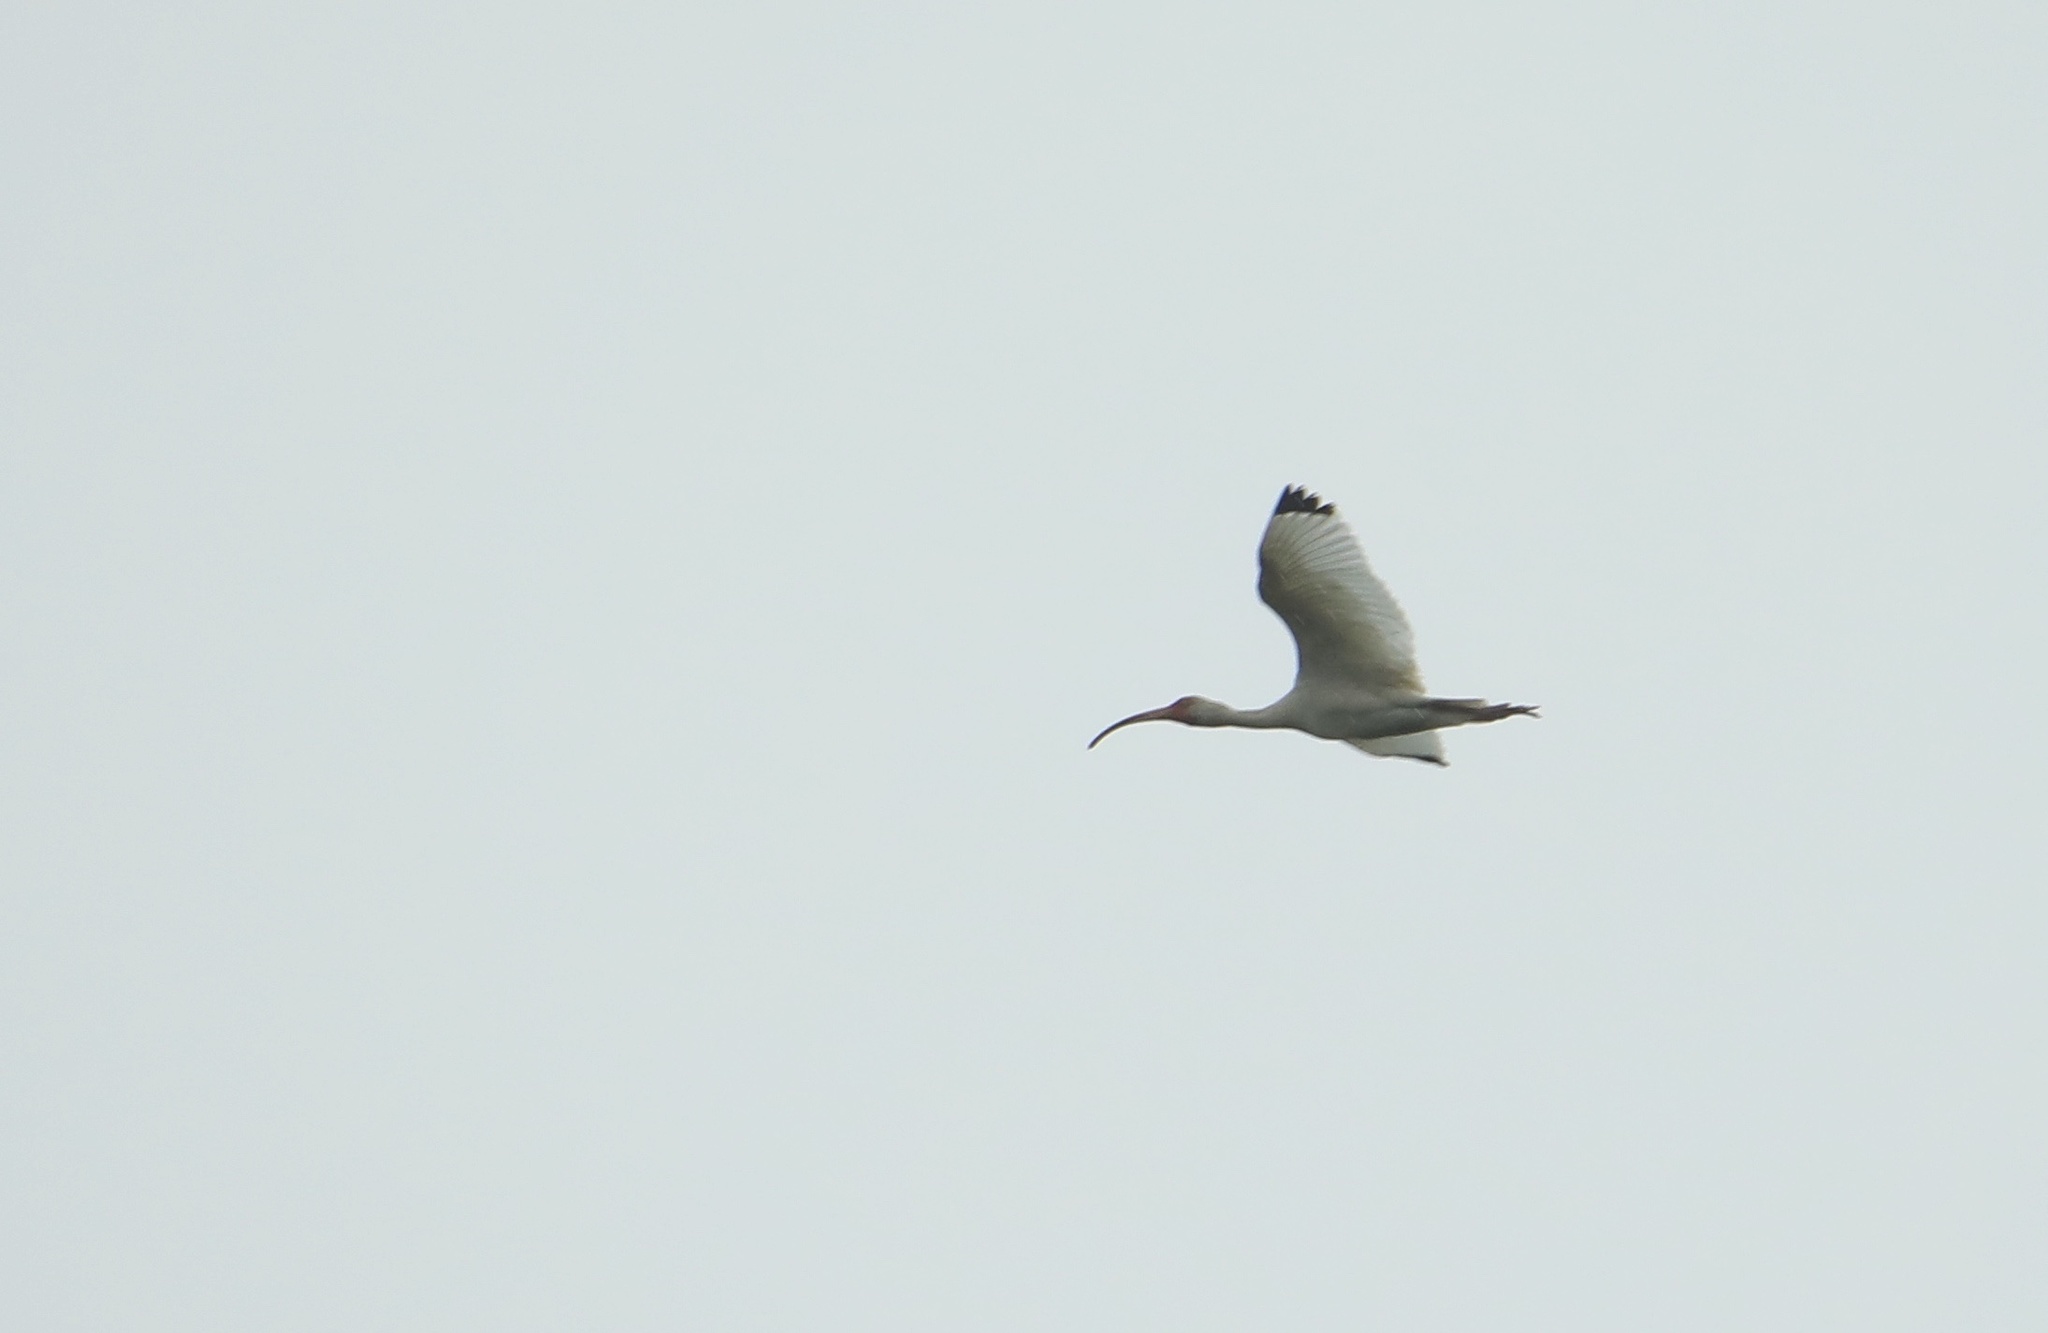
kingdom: Animalia
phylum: Chordata
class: Aves
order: Pelecaniformes
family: Threskiornithidae
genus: Eudocimus
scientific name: Eudocimus albus
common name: White ibis
